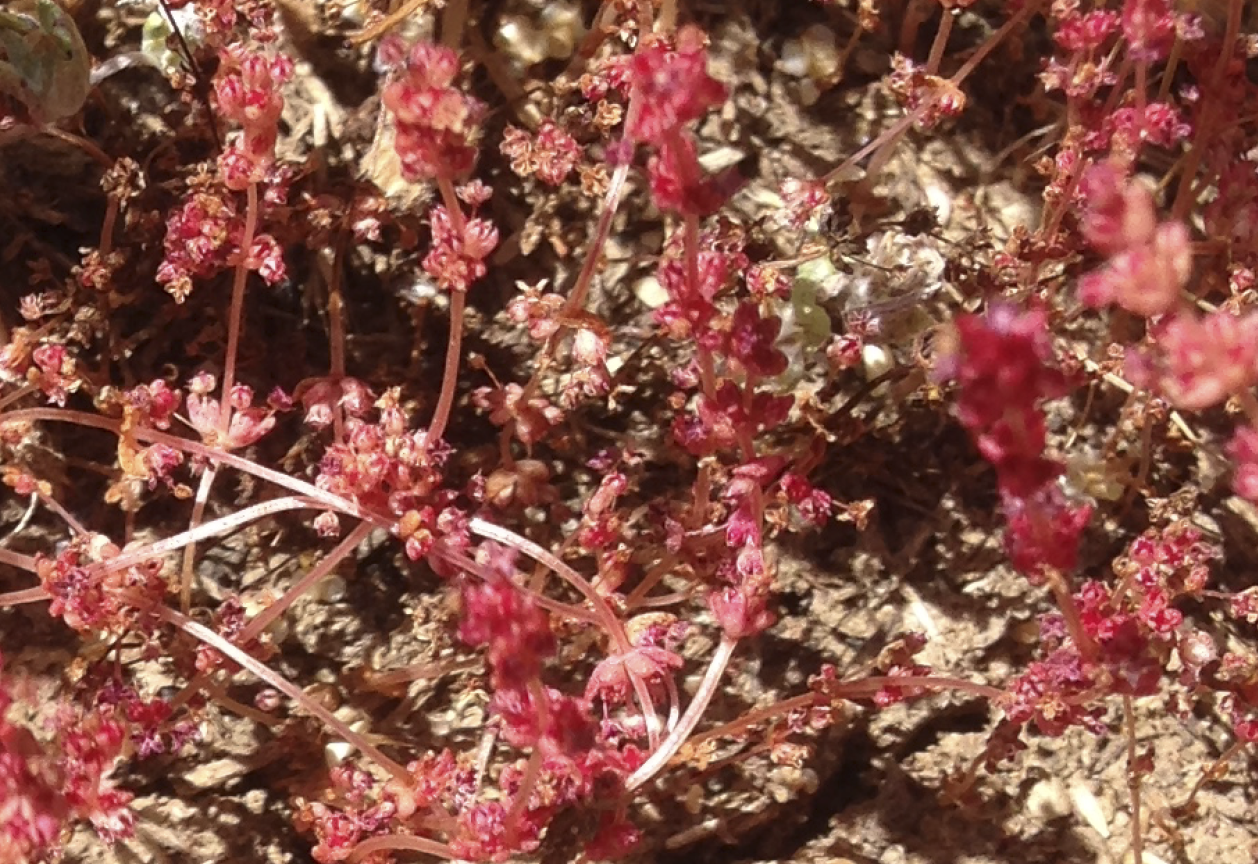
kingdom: Plantae
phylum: Tracheophyta
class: Magnoliopsida
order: Saxifragales
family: Crassulaceae
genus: Crassula
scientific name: Crassula connata
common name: Erect pygmyweed
